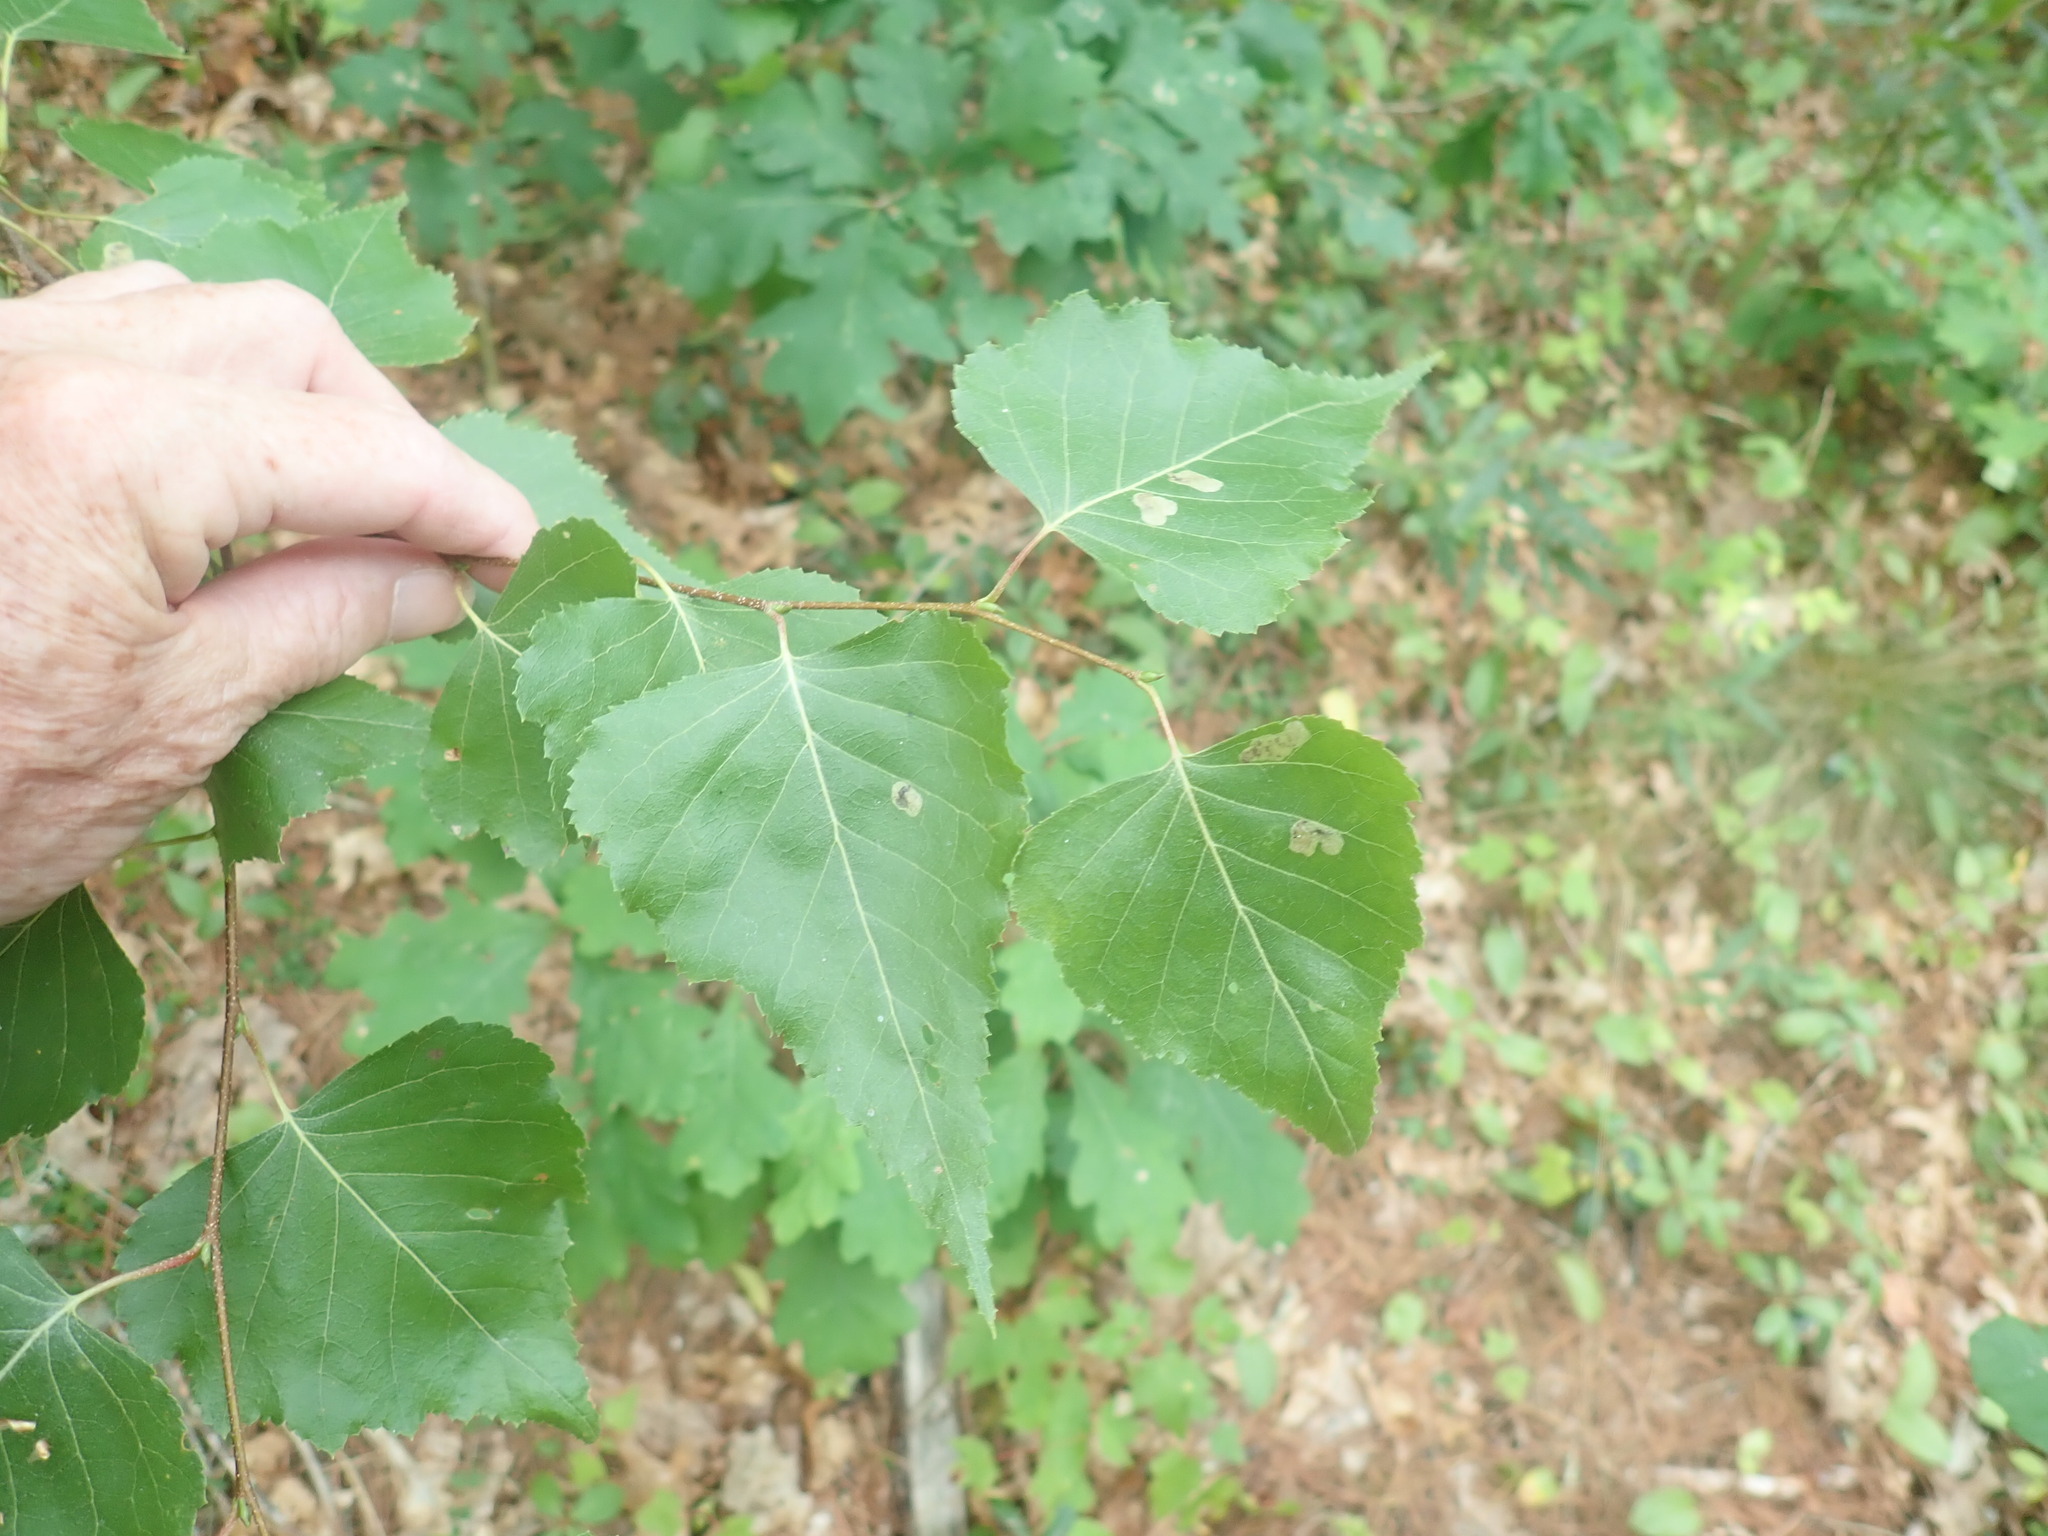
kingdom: Plantae
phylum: Tracheophyta
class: Magnoliopsida
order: Fagales
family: Betulaceae
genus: Betula
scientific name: Betula populifolia
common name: Fire birch
